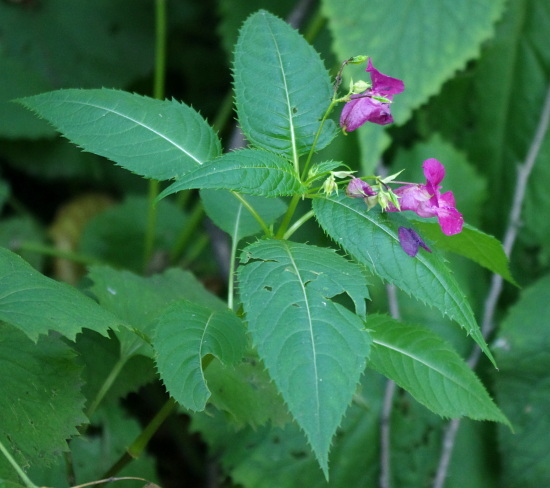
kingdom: Plantae
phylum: Tracheophyta
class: Magnoliopsida
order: Ericales
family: Balsaminaceae
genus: Impatiens
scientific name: Impatiens glandulifera
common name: Himalayan balsam
